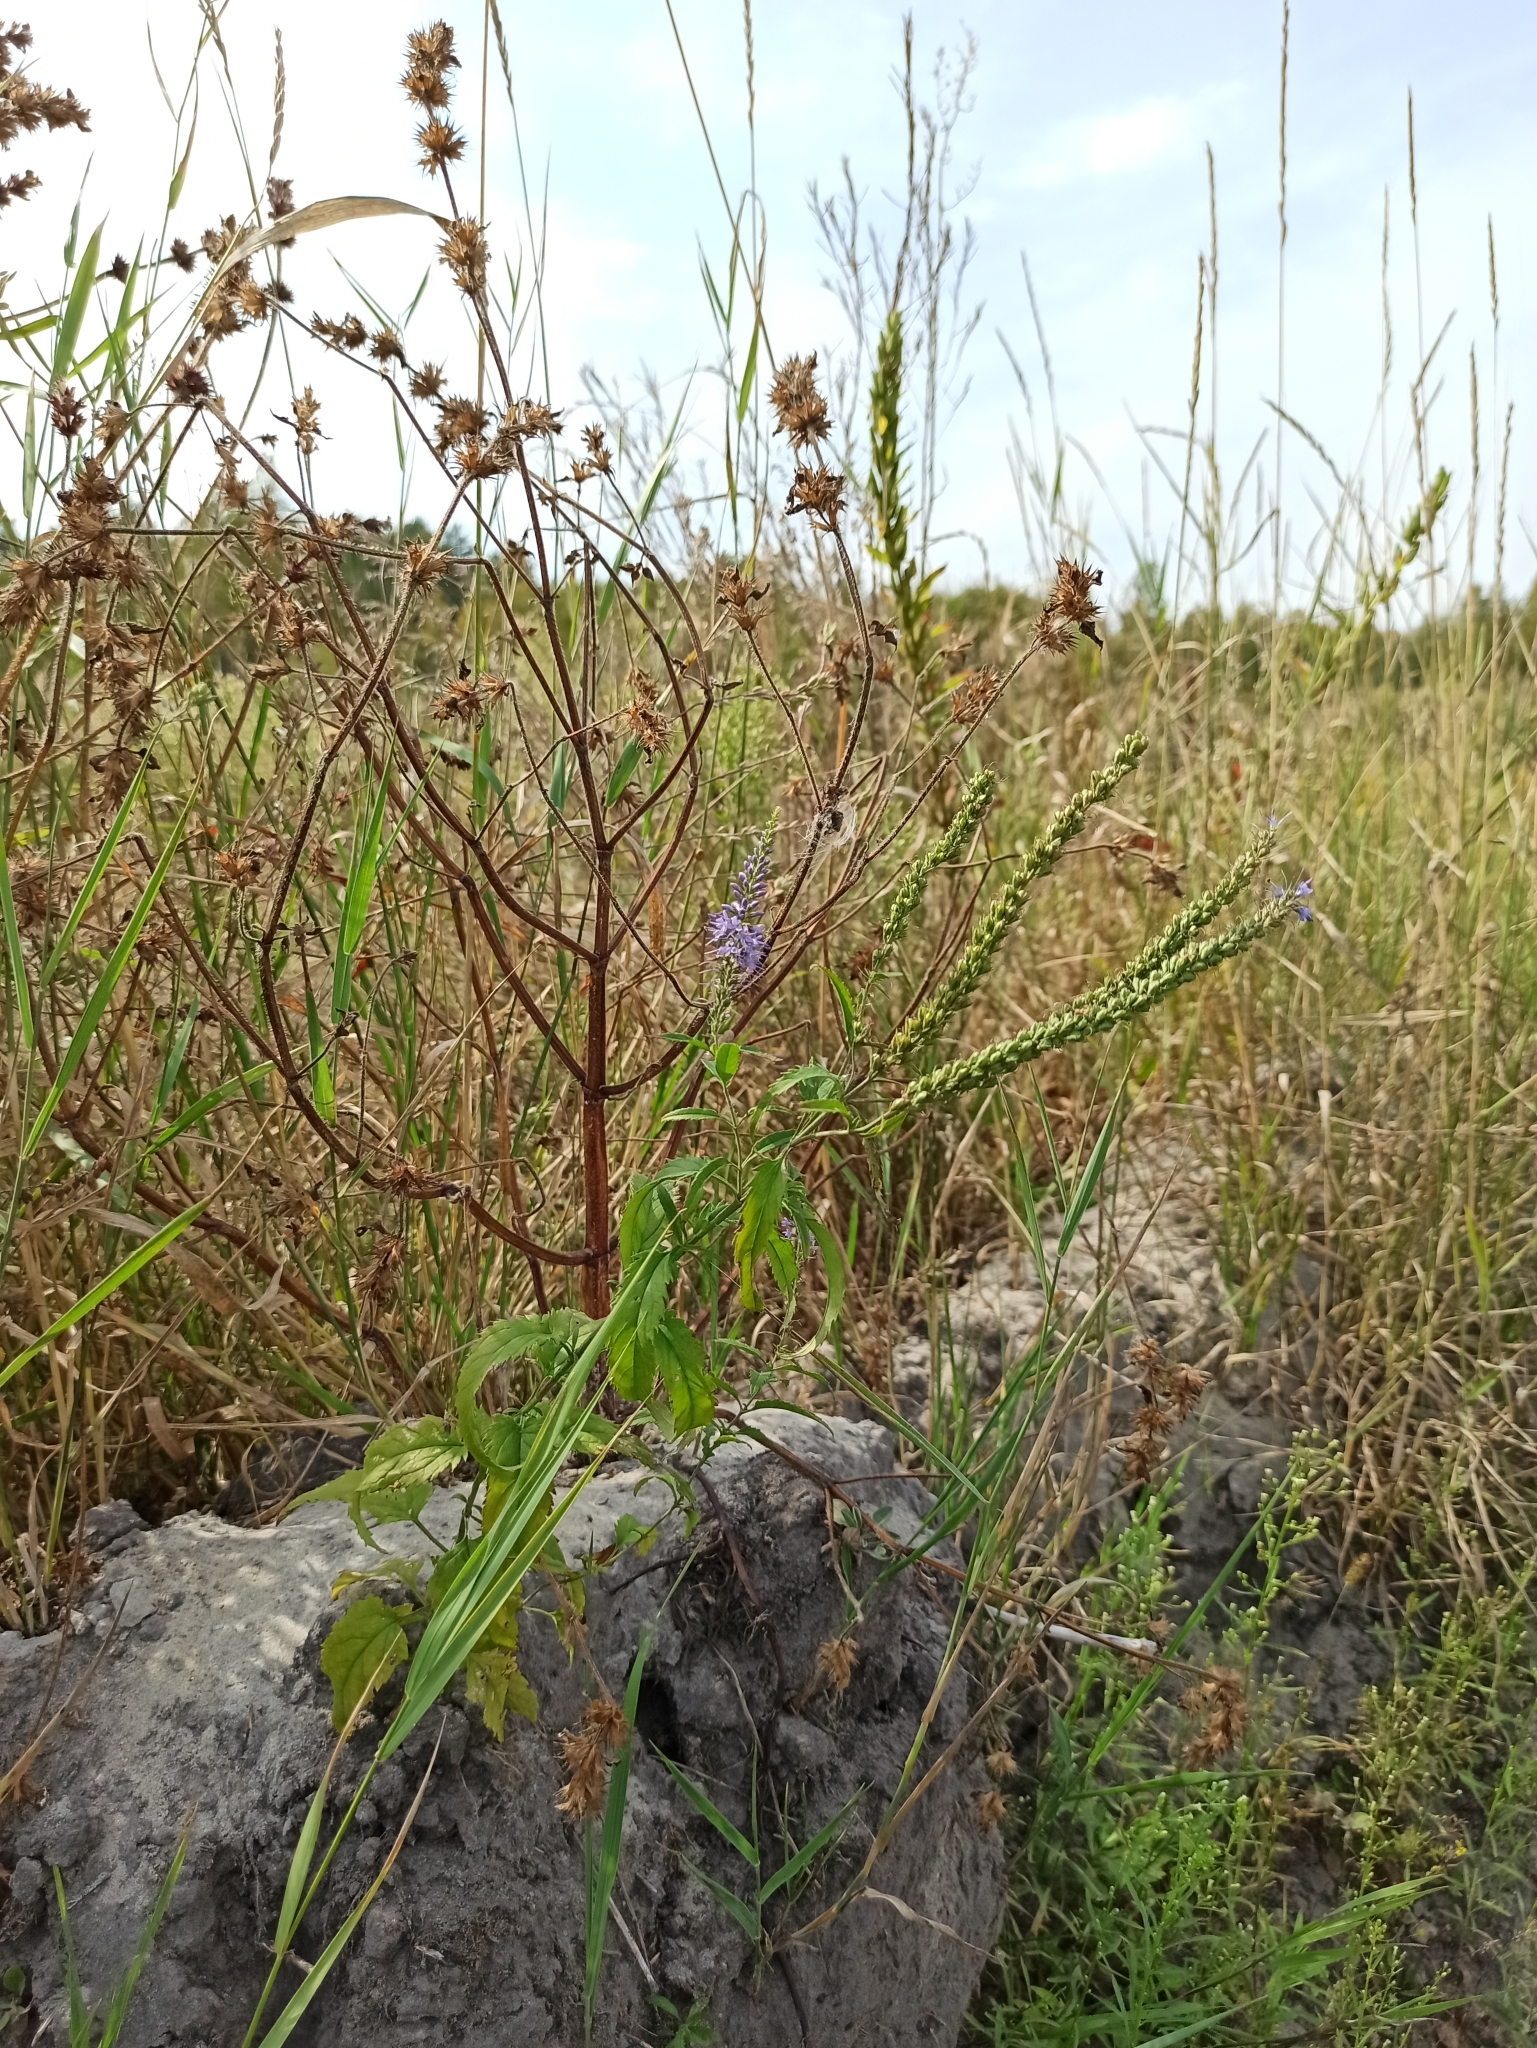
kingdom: Plantae
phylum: Tracheophyta
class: Magnoliopsida
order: Lamiales
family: Plantaginaceae
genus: Veronica
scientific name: Veronica longifolia
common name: Garden speedwell
